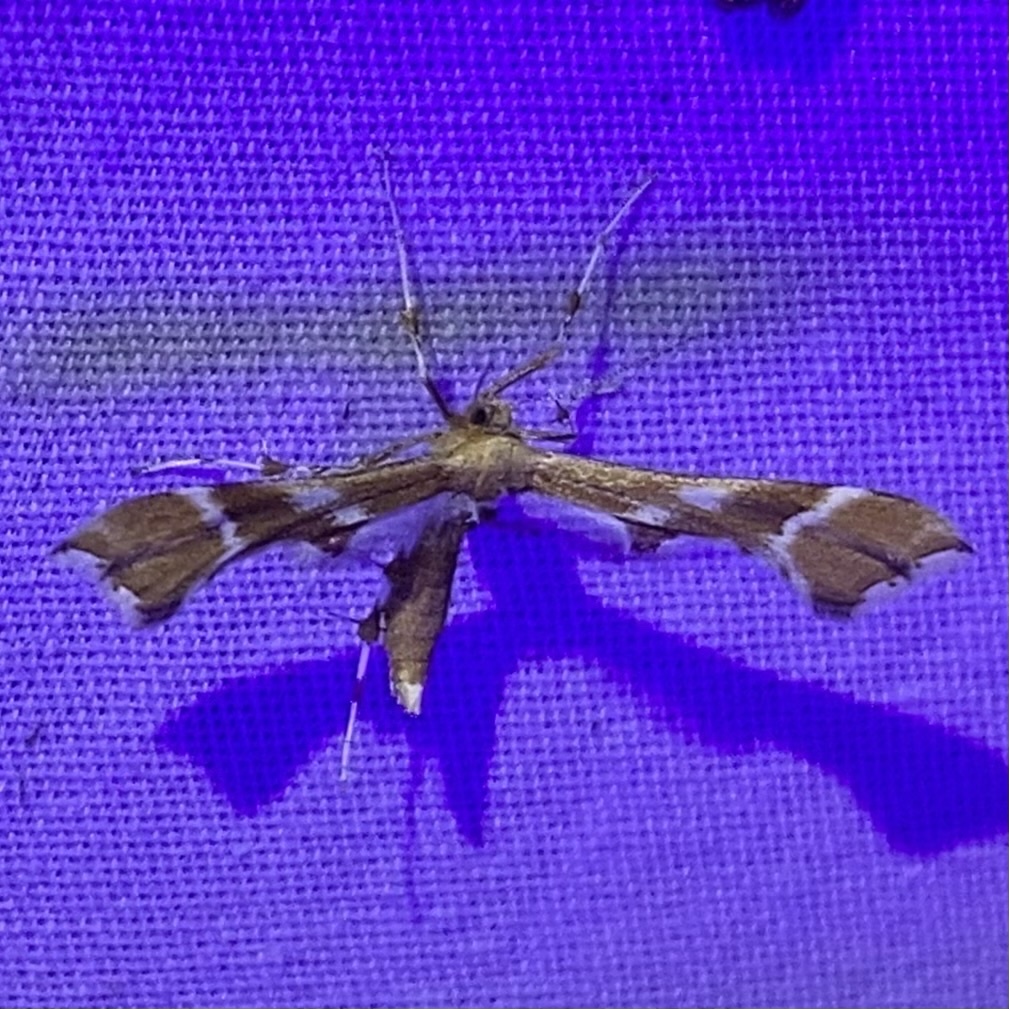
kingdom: Animalia
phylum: Arthropoda
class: Insecta
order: Lepidoptera
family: Pterophoridae
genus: Cnaemidophorus
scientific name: Cnaemidophorus rhododactyla
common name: Rose plume
